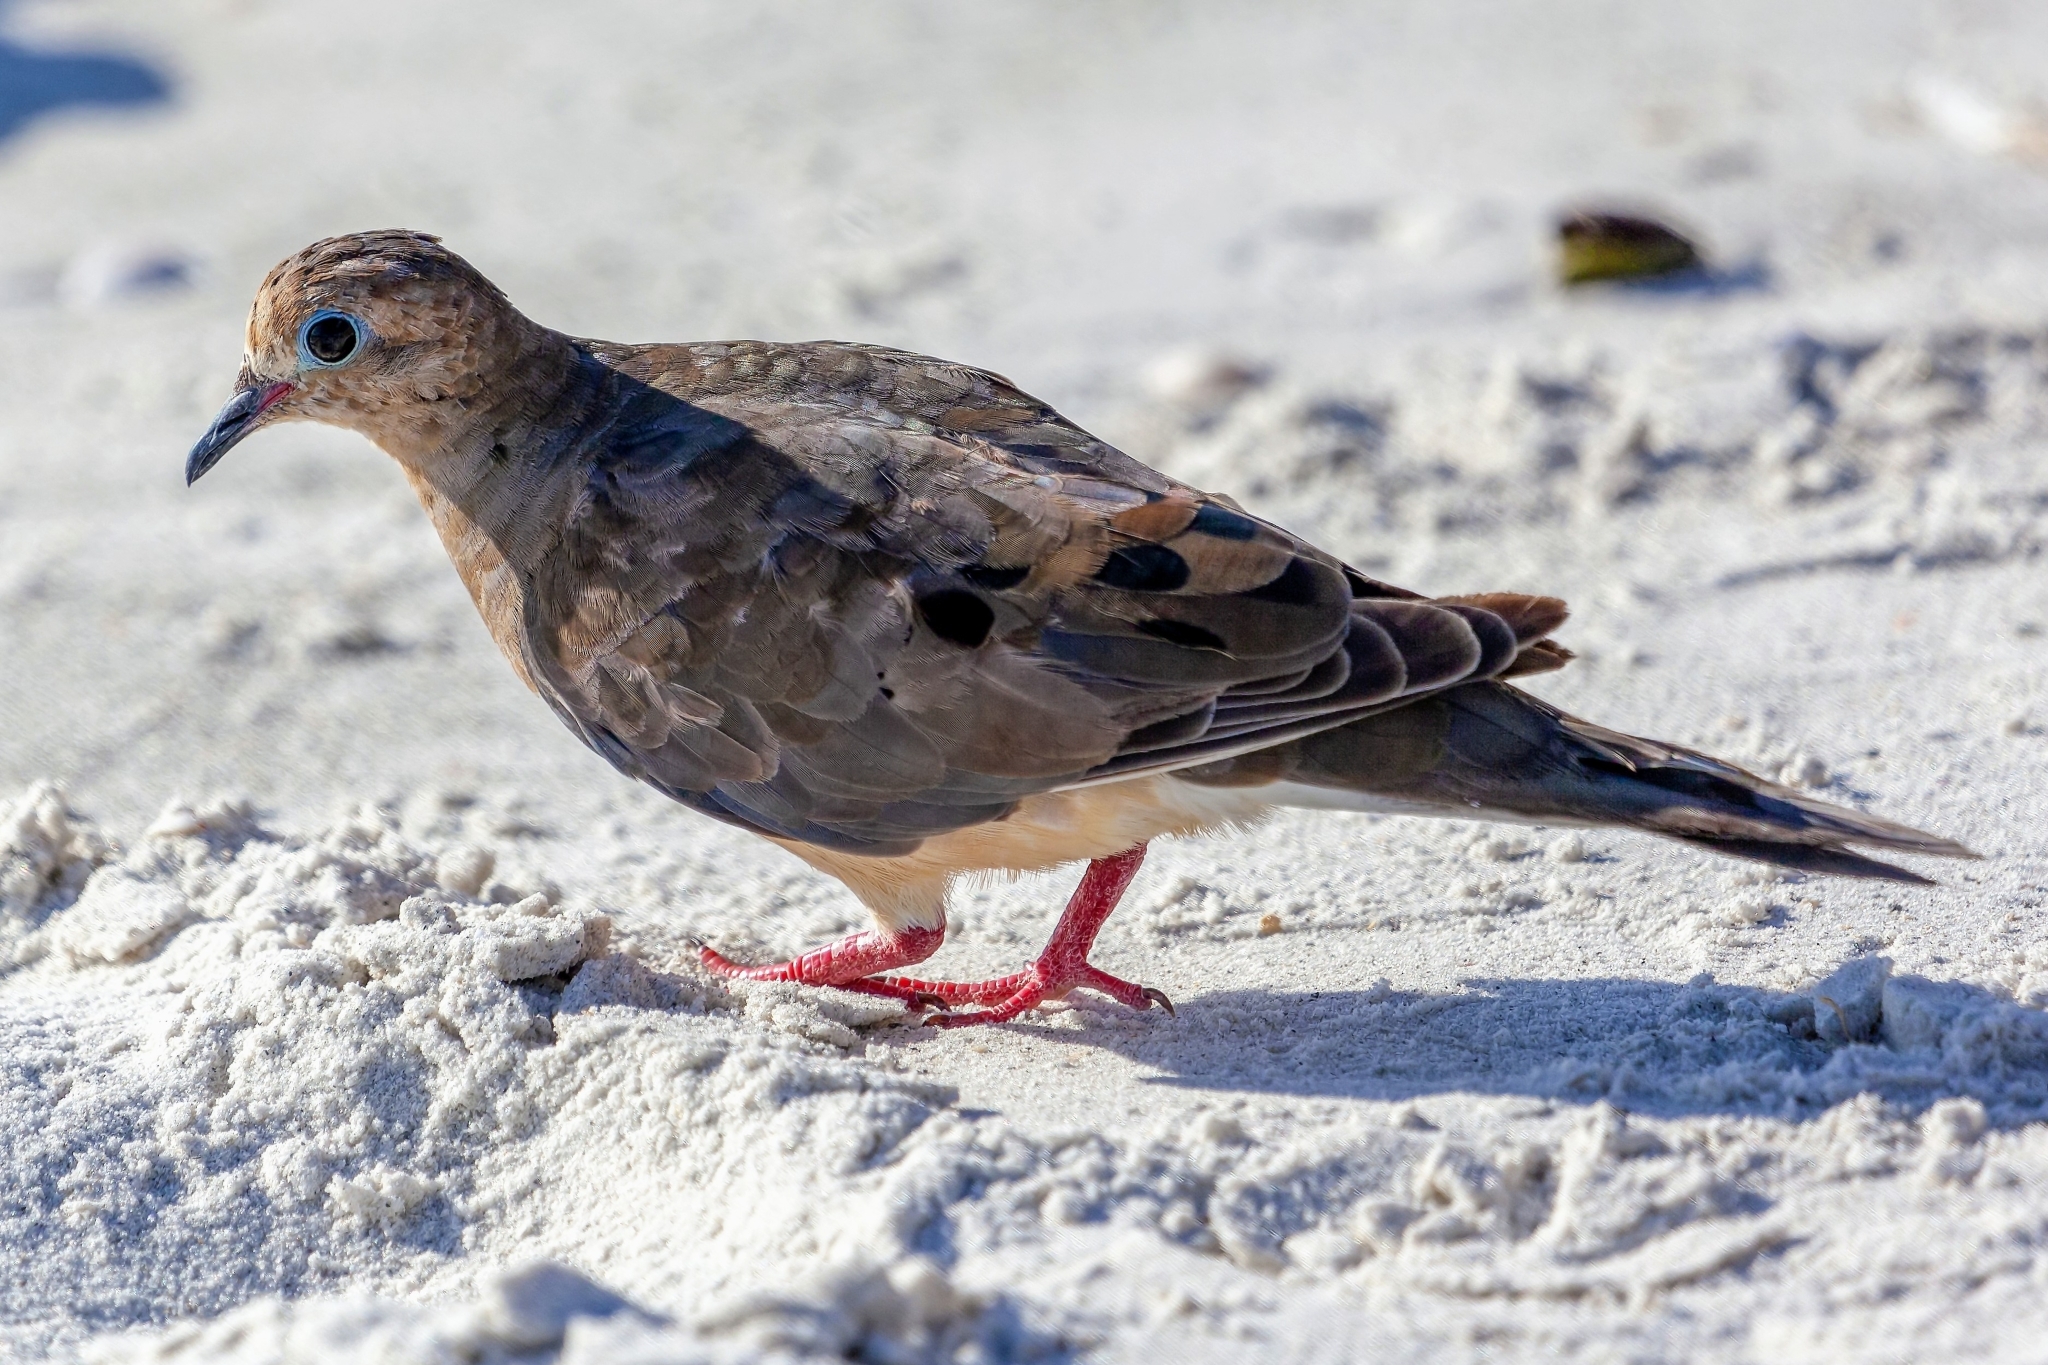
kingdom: Animalia
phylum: Chordata
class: Aves
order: Columbiformes
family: Columbidae
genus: Zenaida
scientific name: Zenaida macroura
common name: Mourning dove
